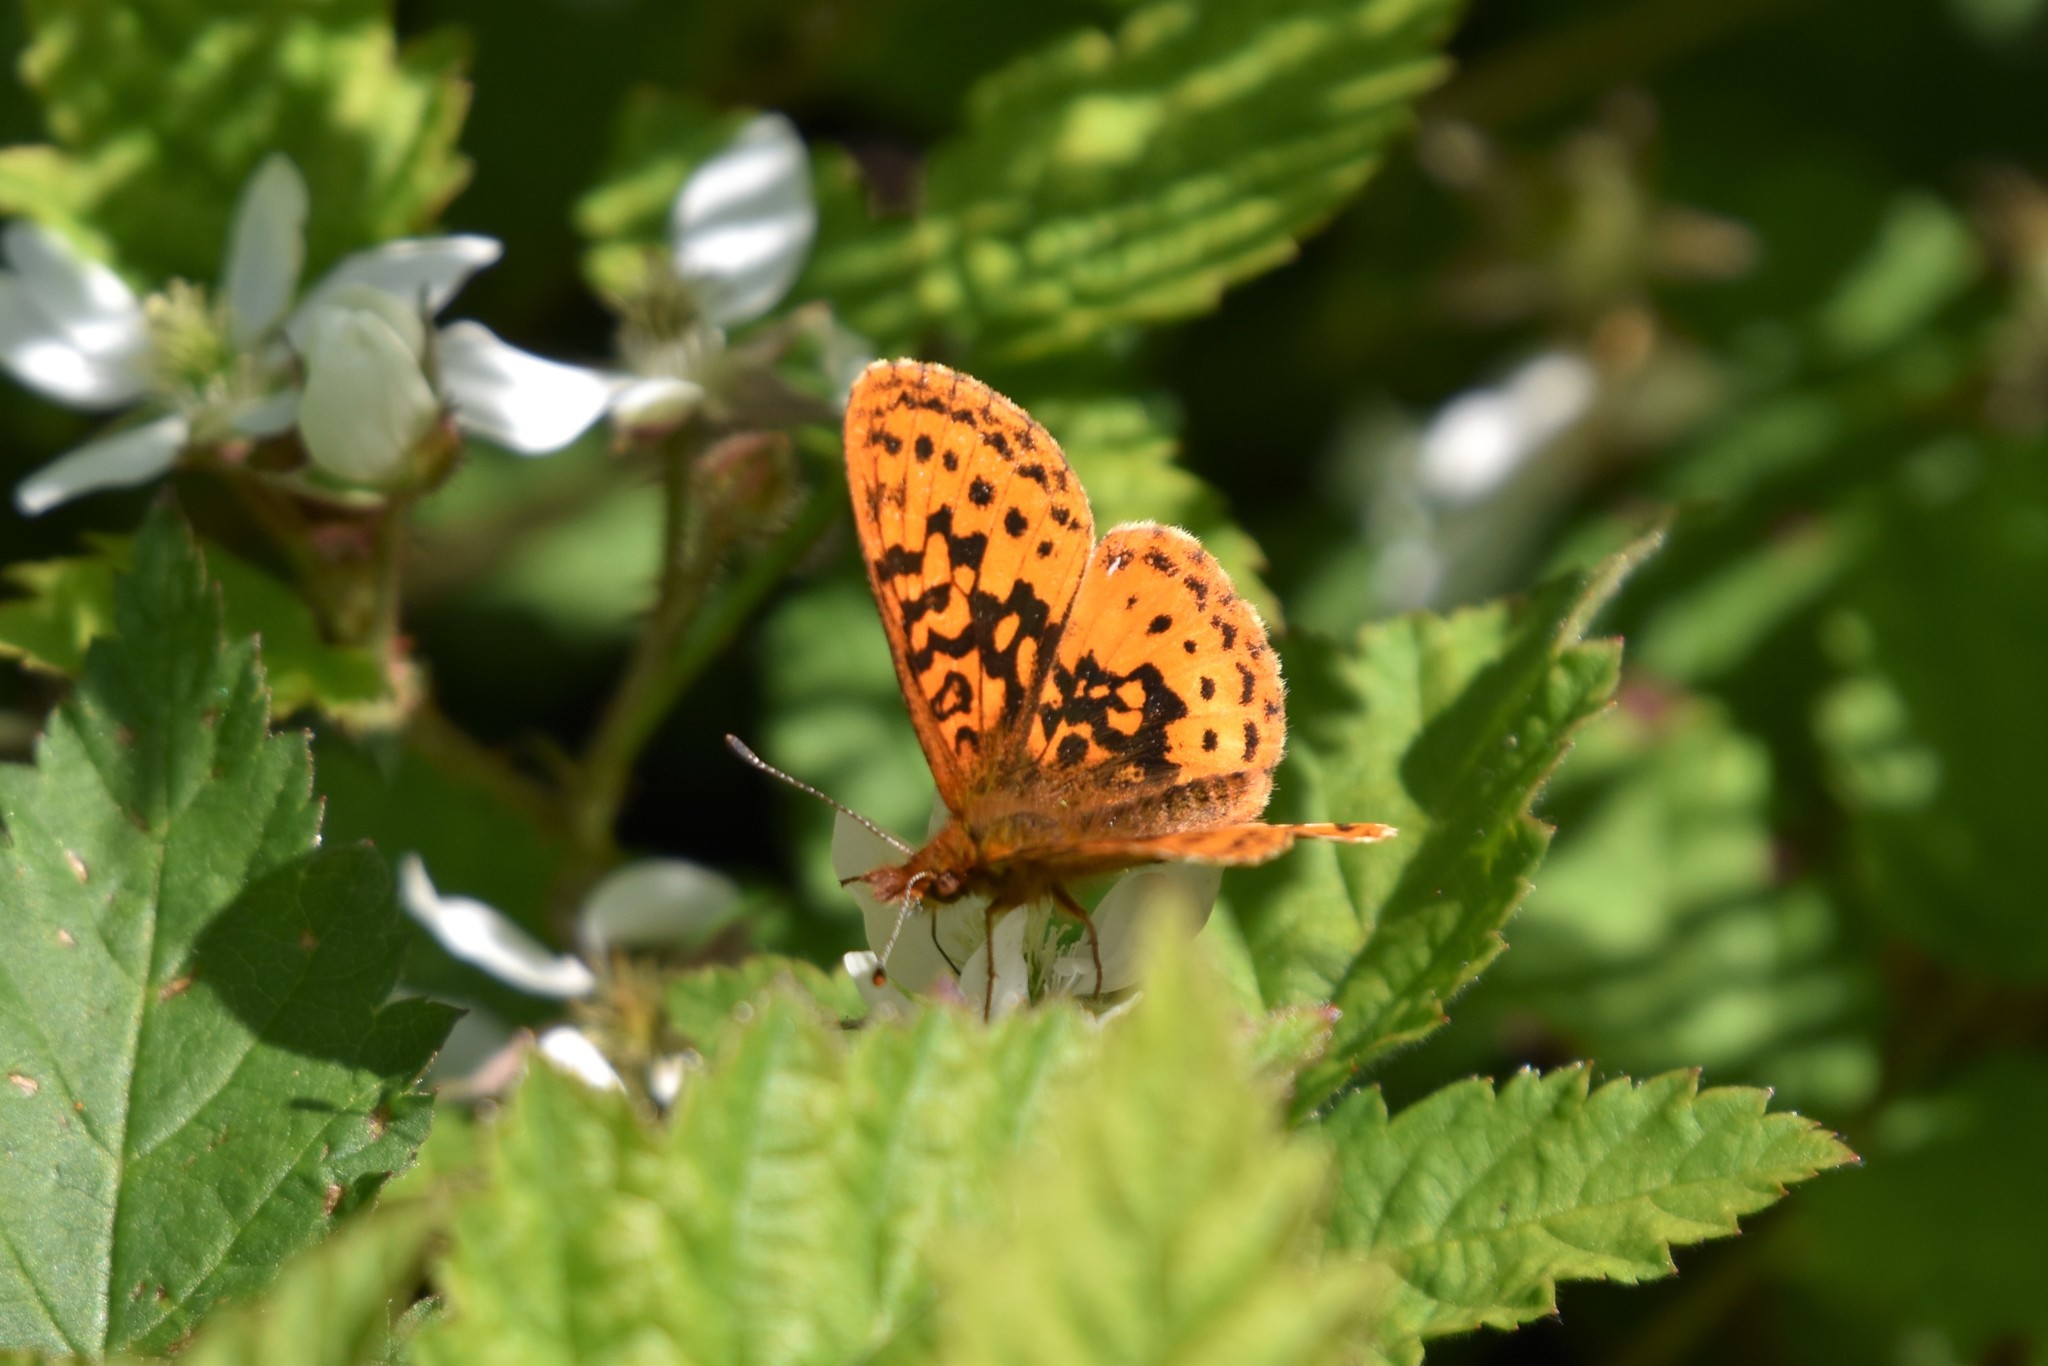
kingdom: Animalia
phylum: Arthropoda
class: Insecta
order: Lepidoptera
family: Nymphalidae
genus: Boloria
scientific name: Boloria epithore
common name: Pacific fritillary
